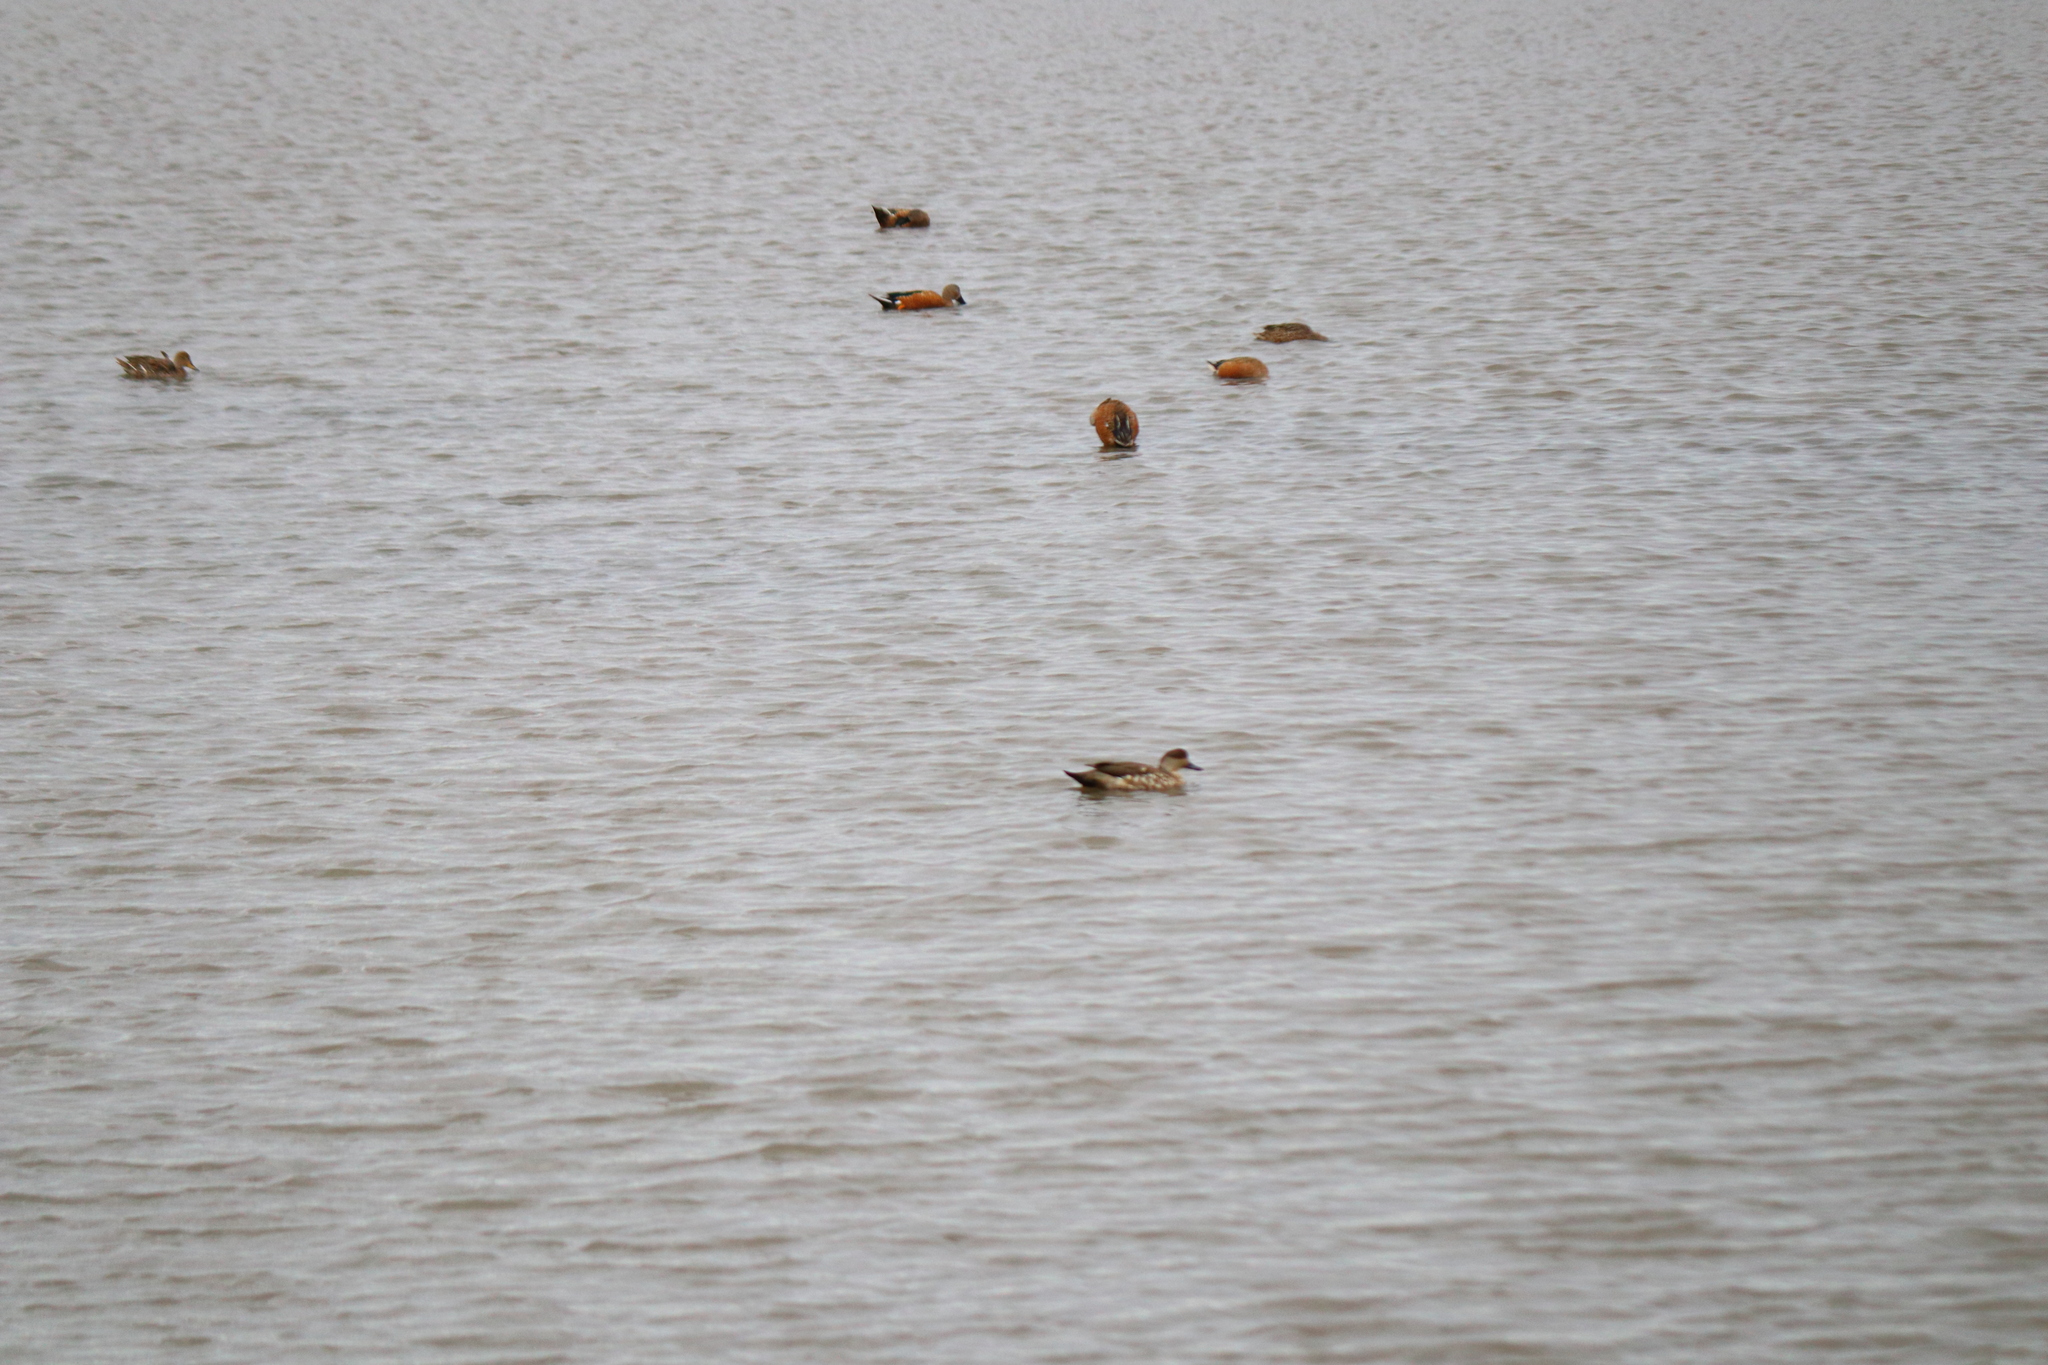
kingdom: Animalia
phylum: Chordata
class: Aves
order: Anseriformes
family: Anatidae
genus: Lophonetta
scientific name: Lophonetta specularioides
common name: Crested duck
